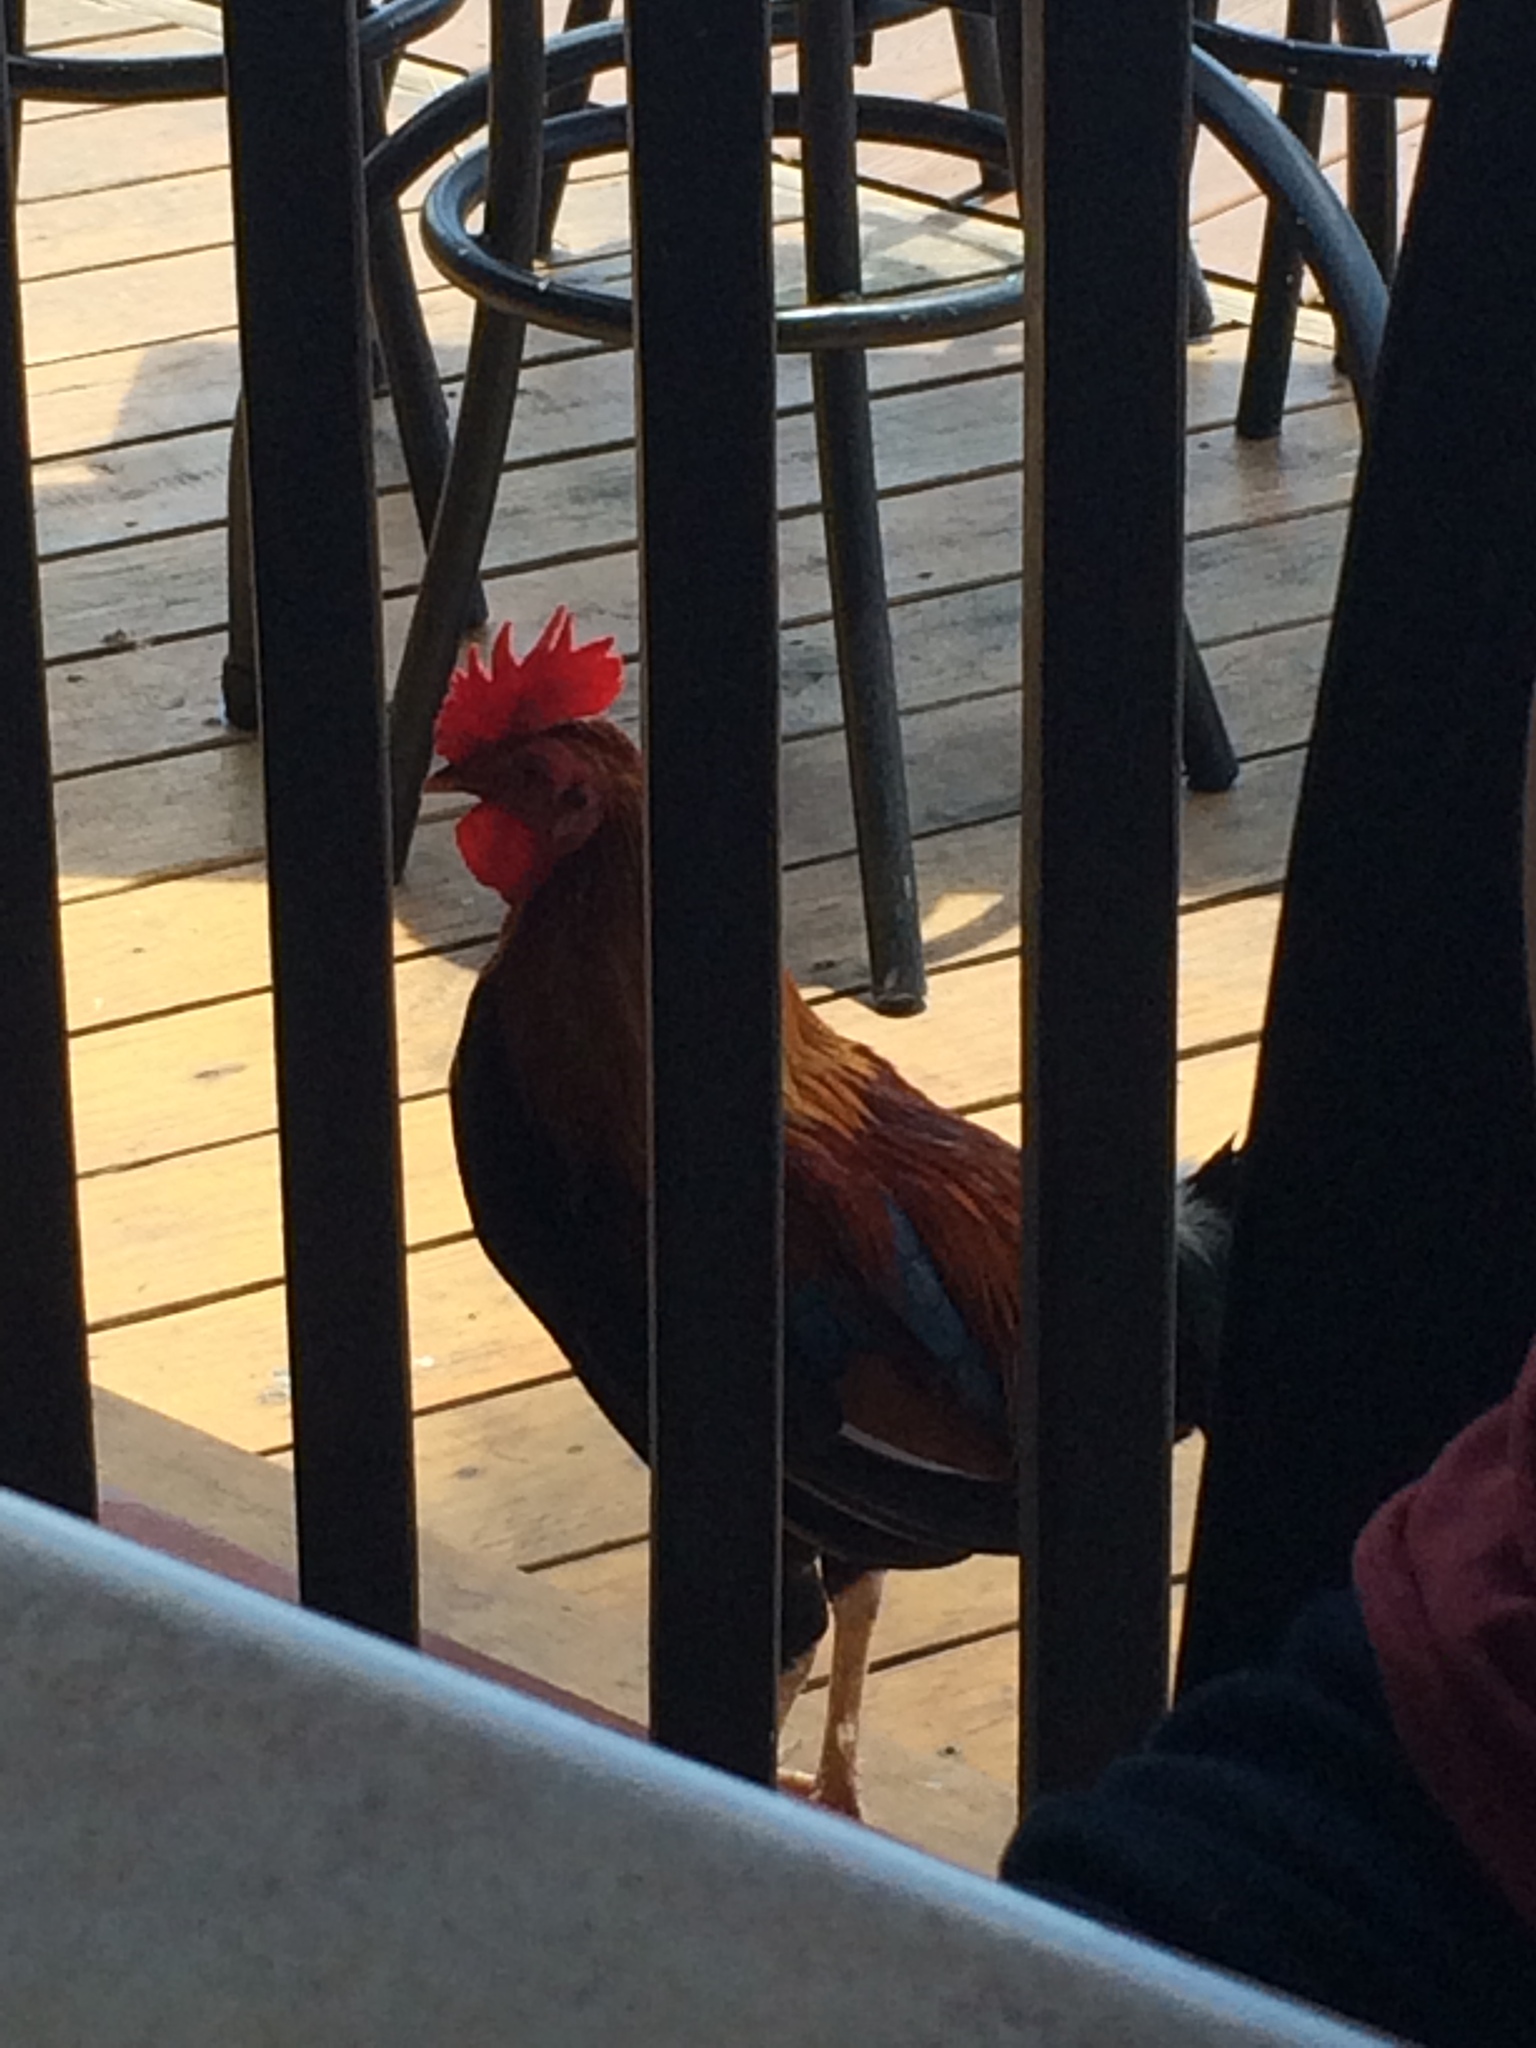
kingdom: Animalia
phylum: Chordata
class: Aves
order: Galliformes
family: Phasianidae
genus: Gallus
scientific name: Gallus gallus
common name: Red junglefowl
